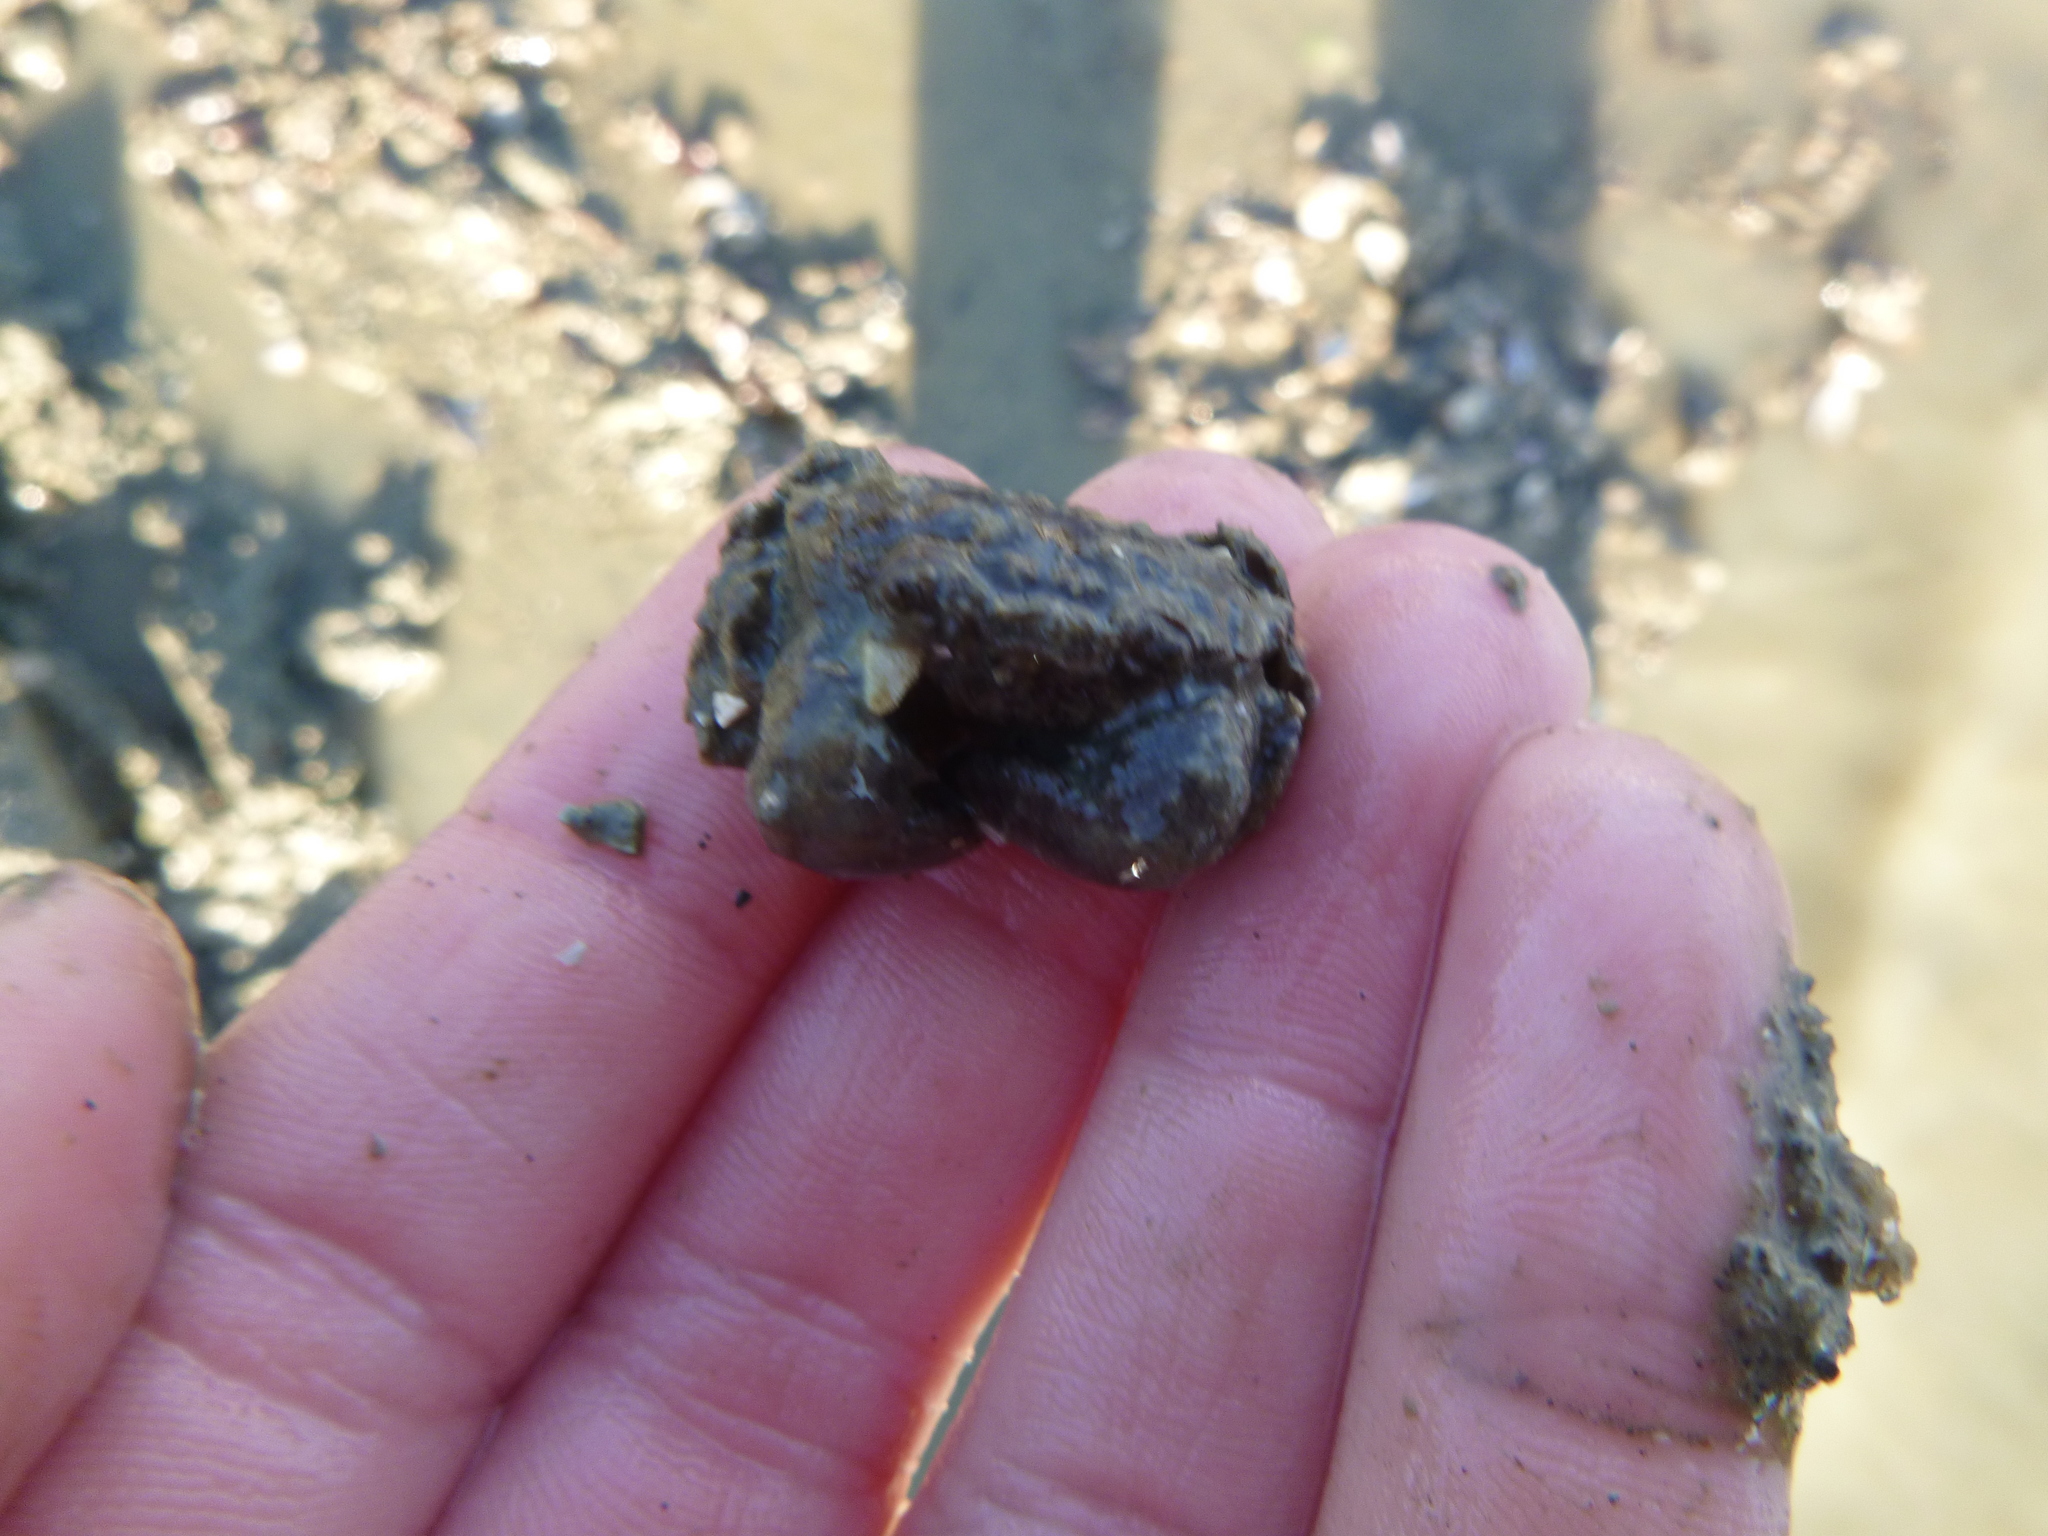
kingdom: Animalia
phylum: Arthropoda
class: Malacostraca
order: Decapoda
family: Varunidae
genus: Austrohelice
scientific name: Austrohelice crassa
